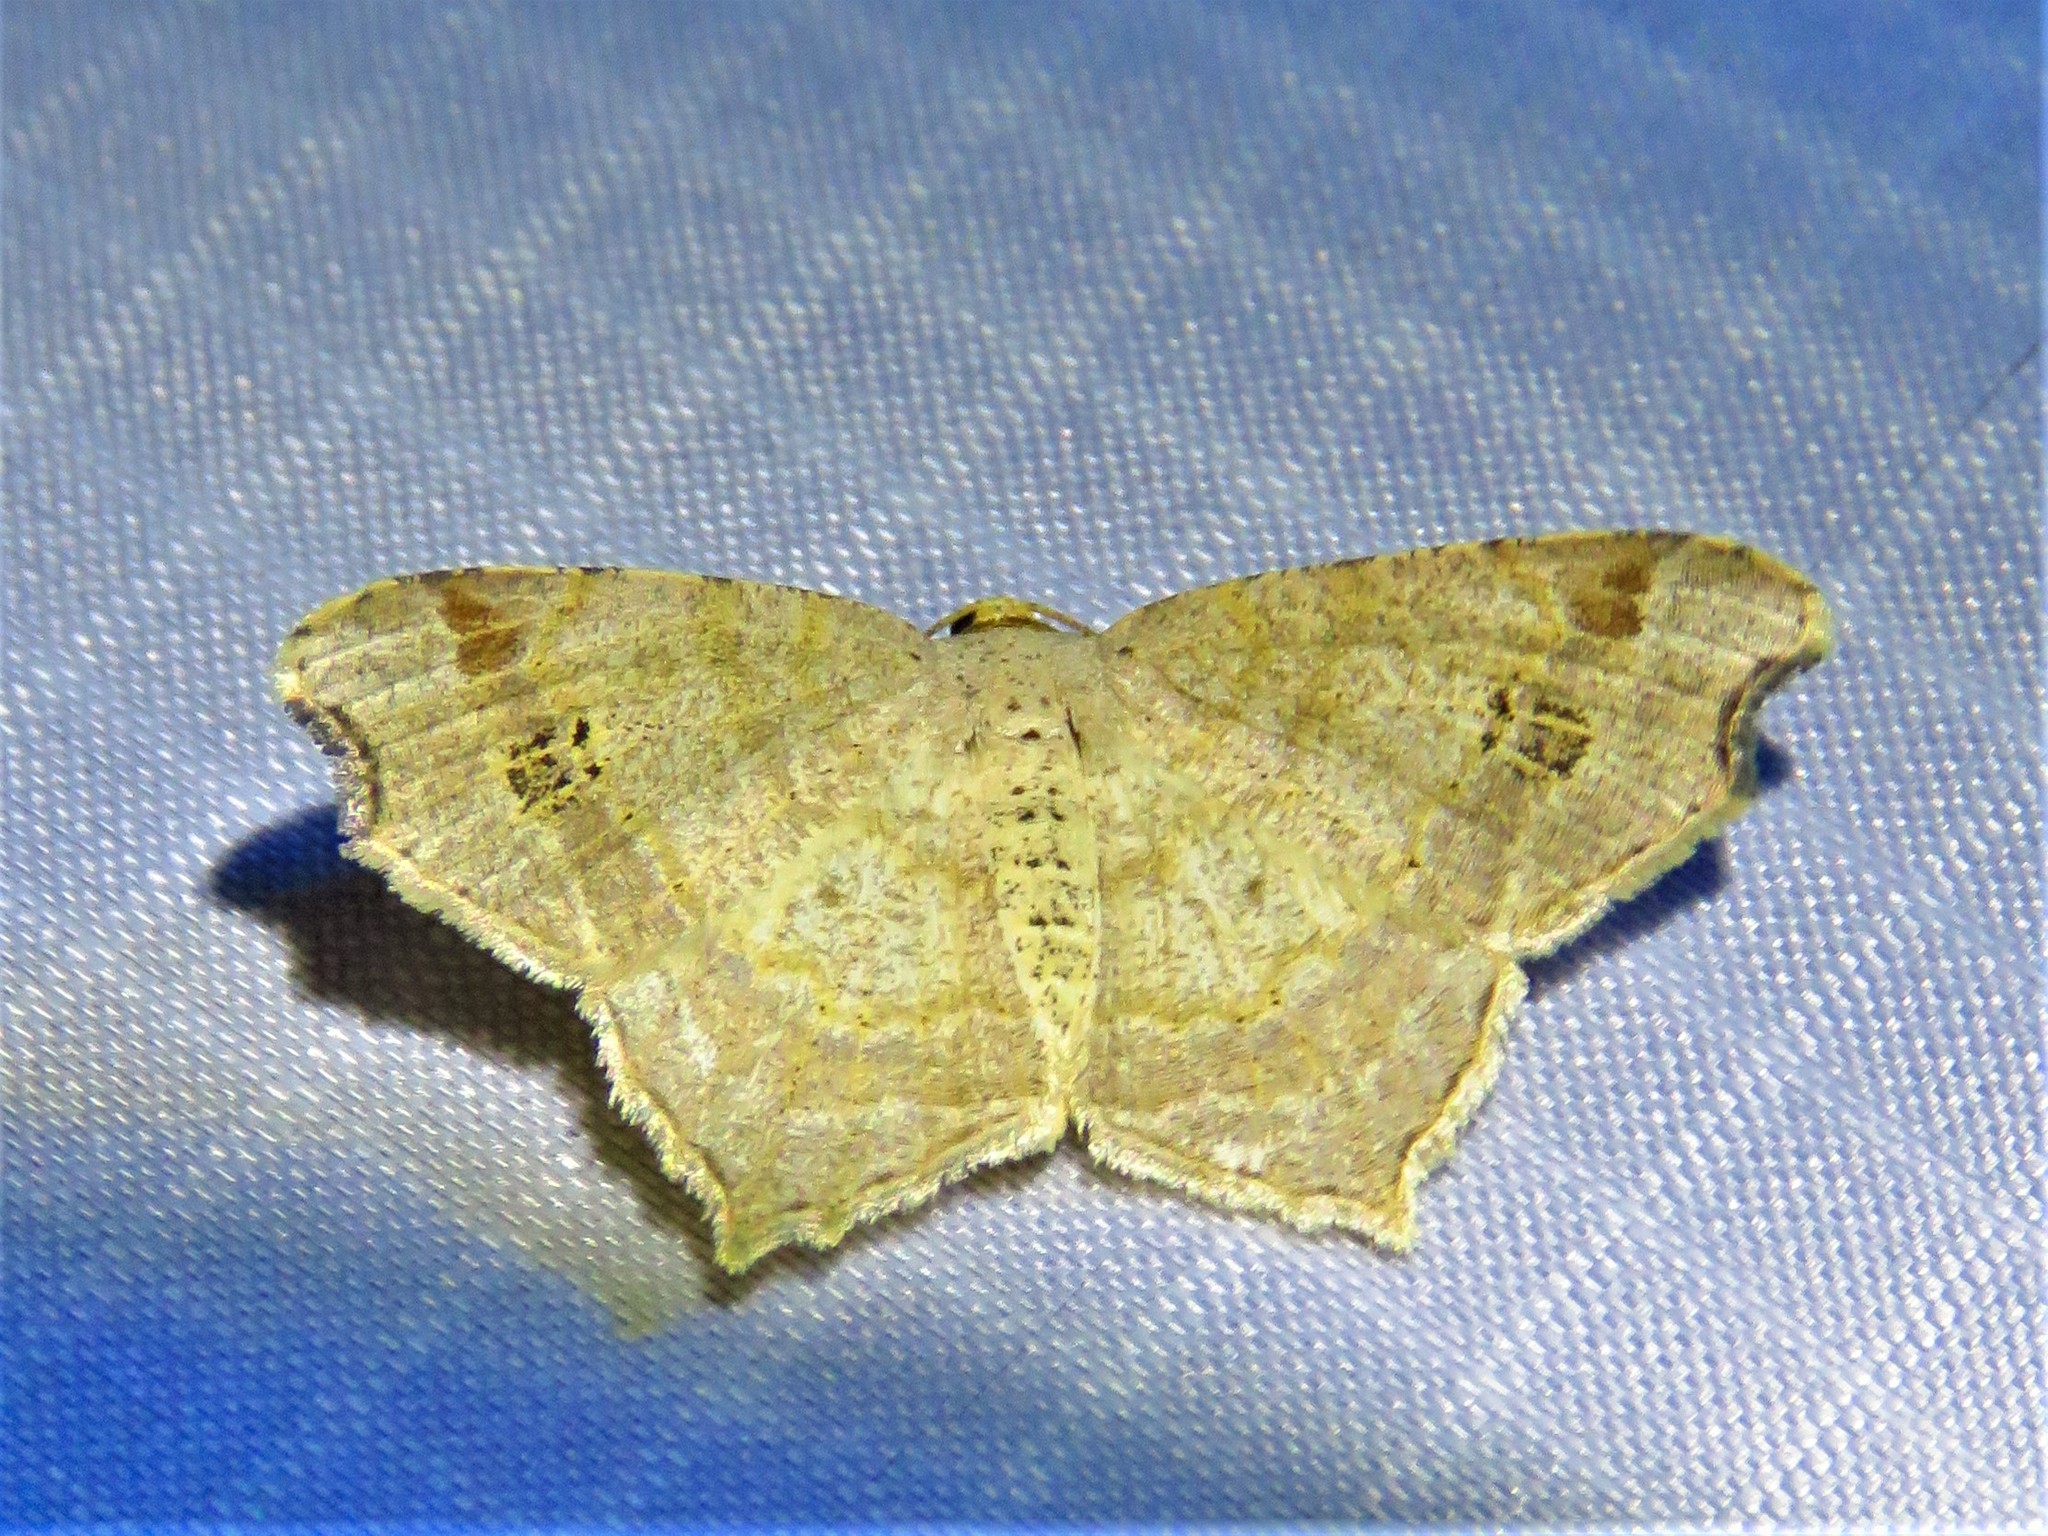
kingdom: Animalia
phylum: Arthropoda
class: Insecta
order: Lepidoptera
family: Geometridae
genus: Macaria
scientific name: Macaria aemulataria
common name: Common angle
